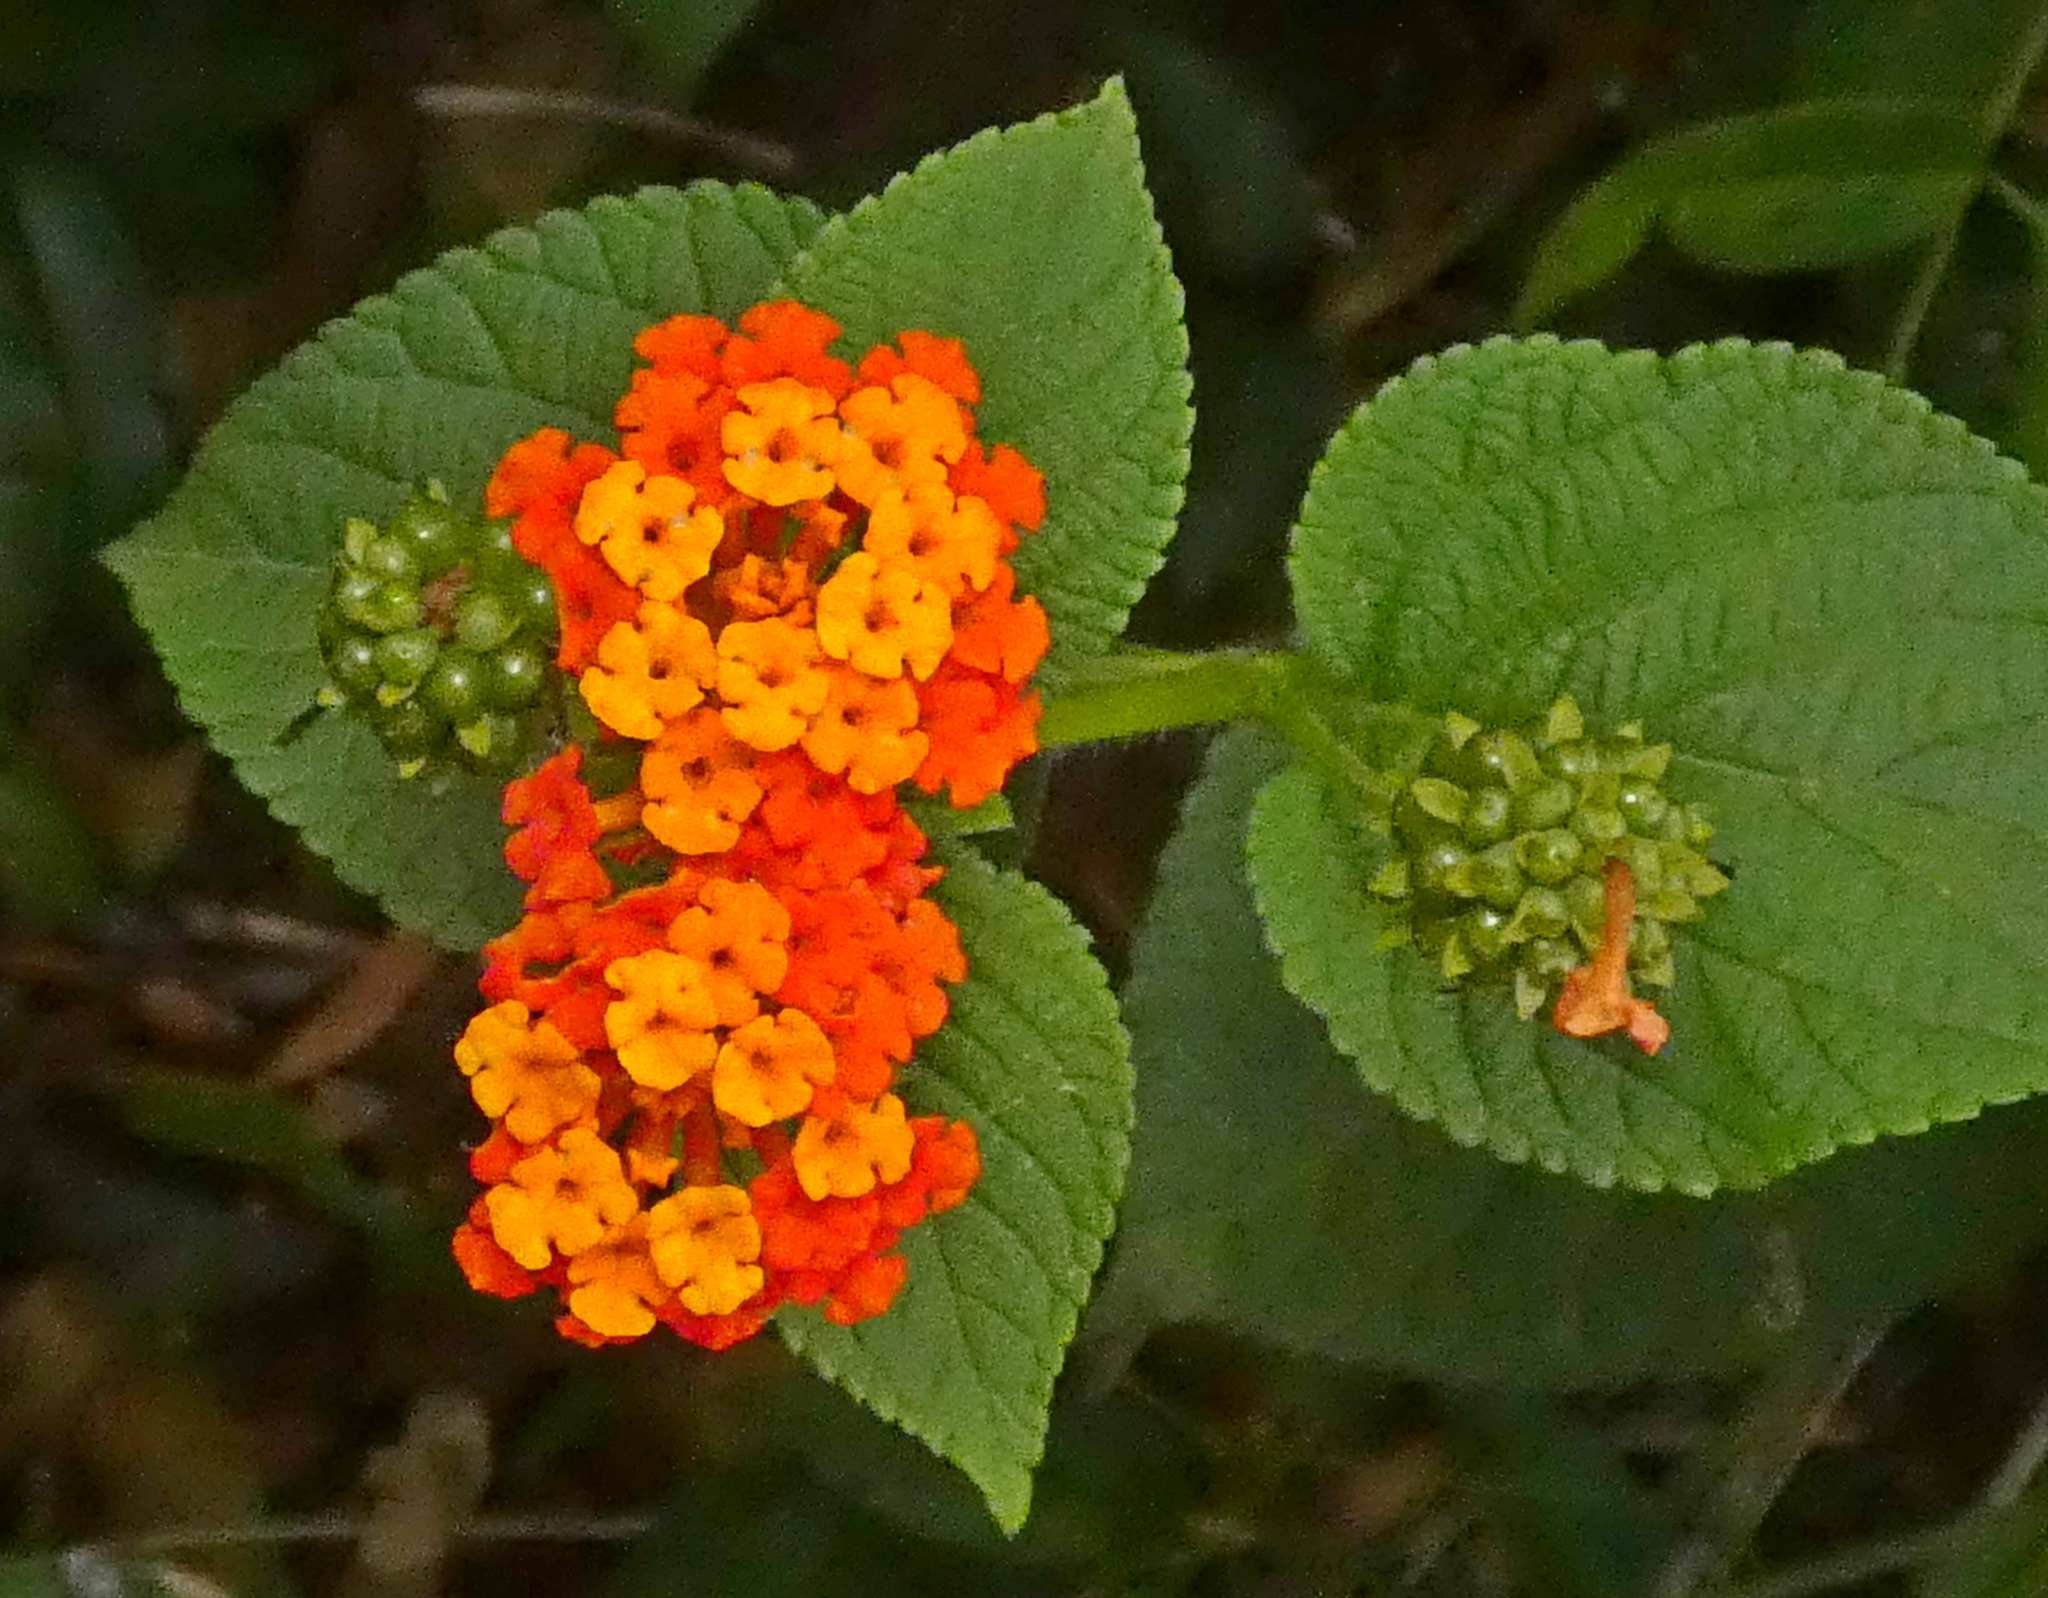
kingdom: Plantae
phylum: Tracheophyta
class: Magnoliopsida
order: Lamiales
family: Verbenaceae
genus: Lantana
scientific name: Lantana camara
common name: Lantana
